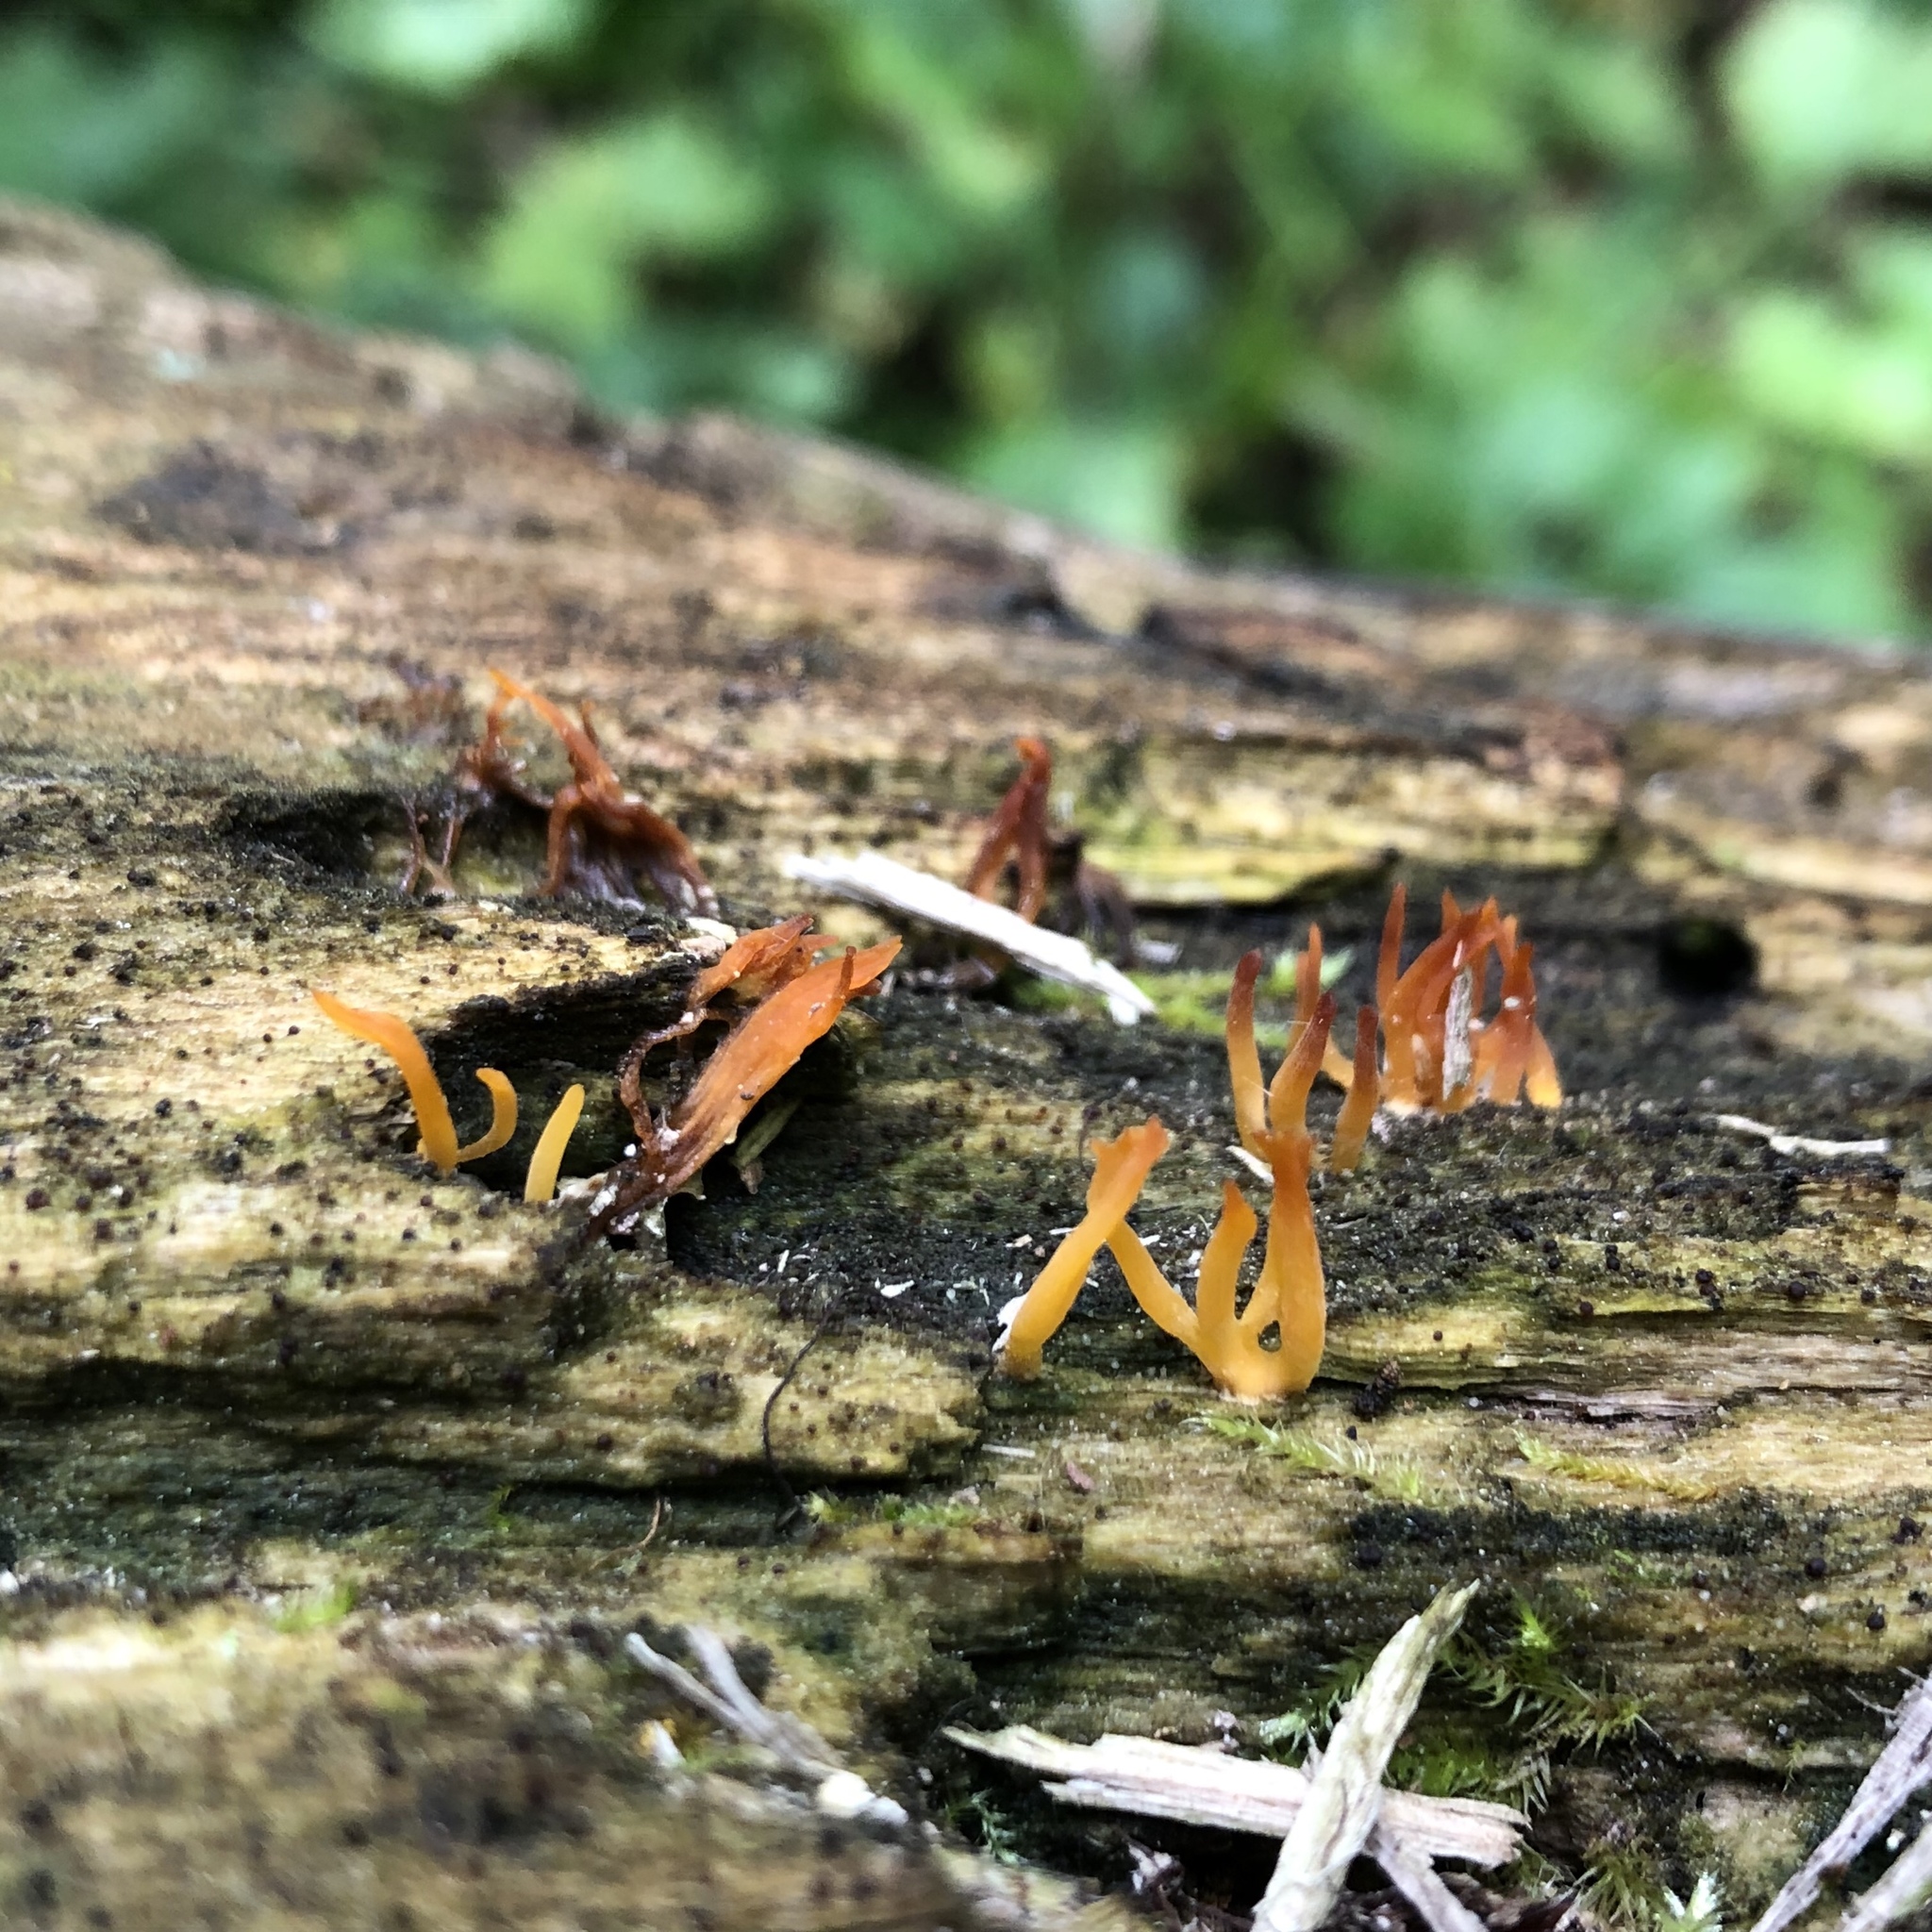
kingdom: Fungi
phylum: Basidiomycota
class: Dacrymycetes
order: Dacrymycetales
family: Dacrymycetaceae
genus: Calocera
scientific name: Calocera cornea
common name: Small stagshorn
